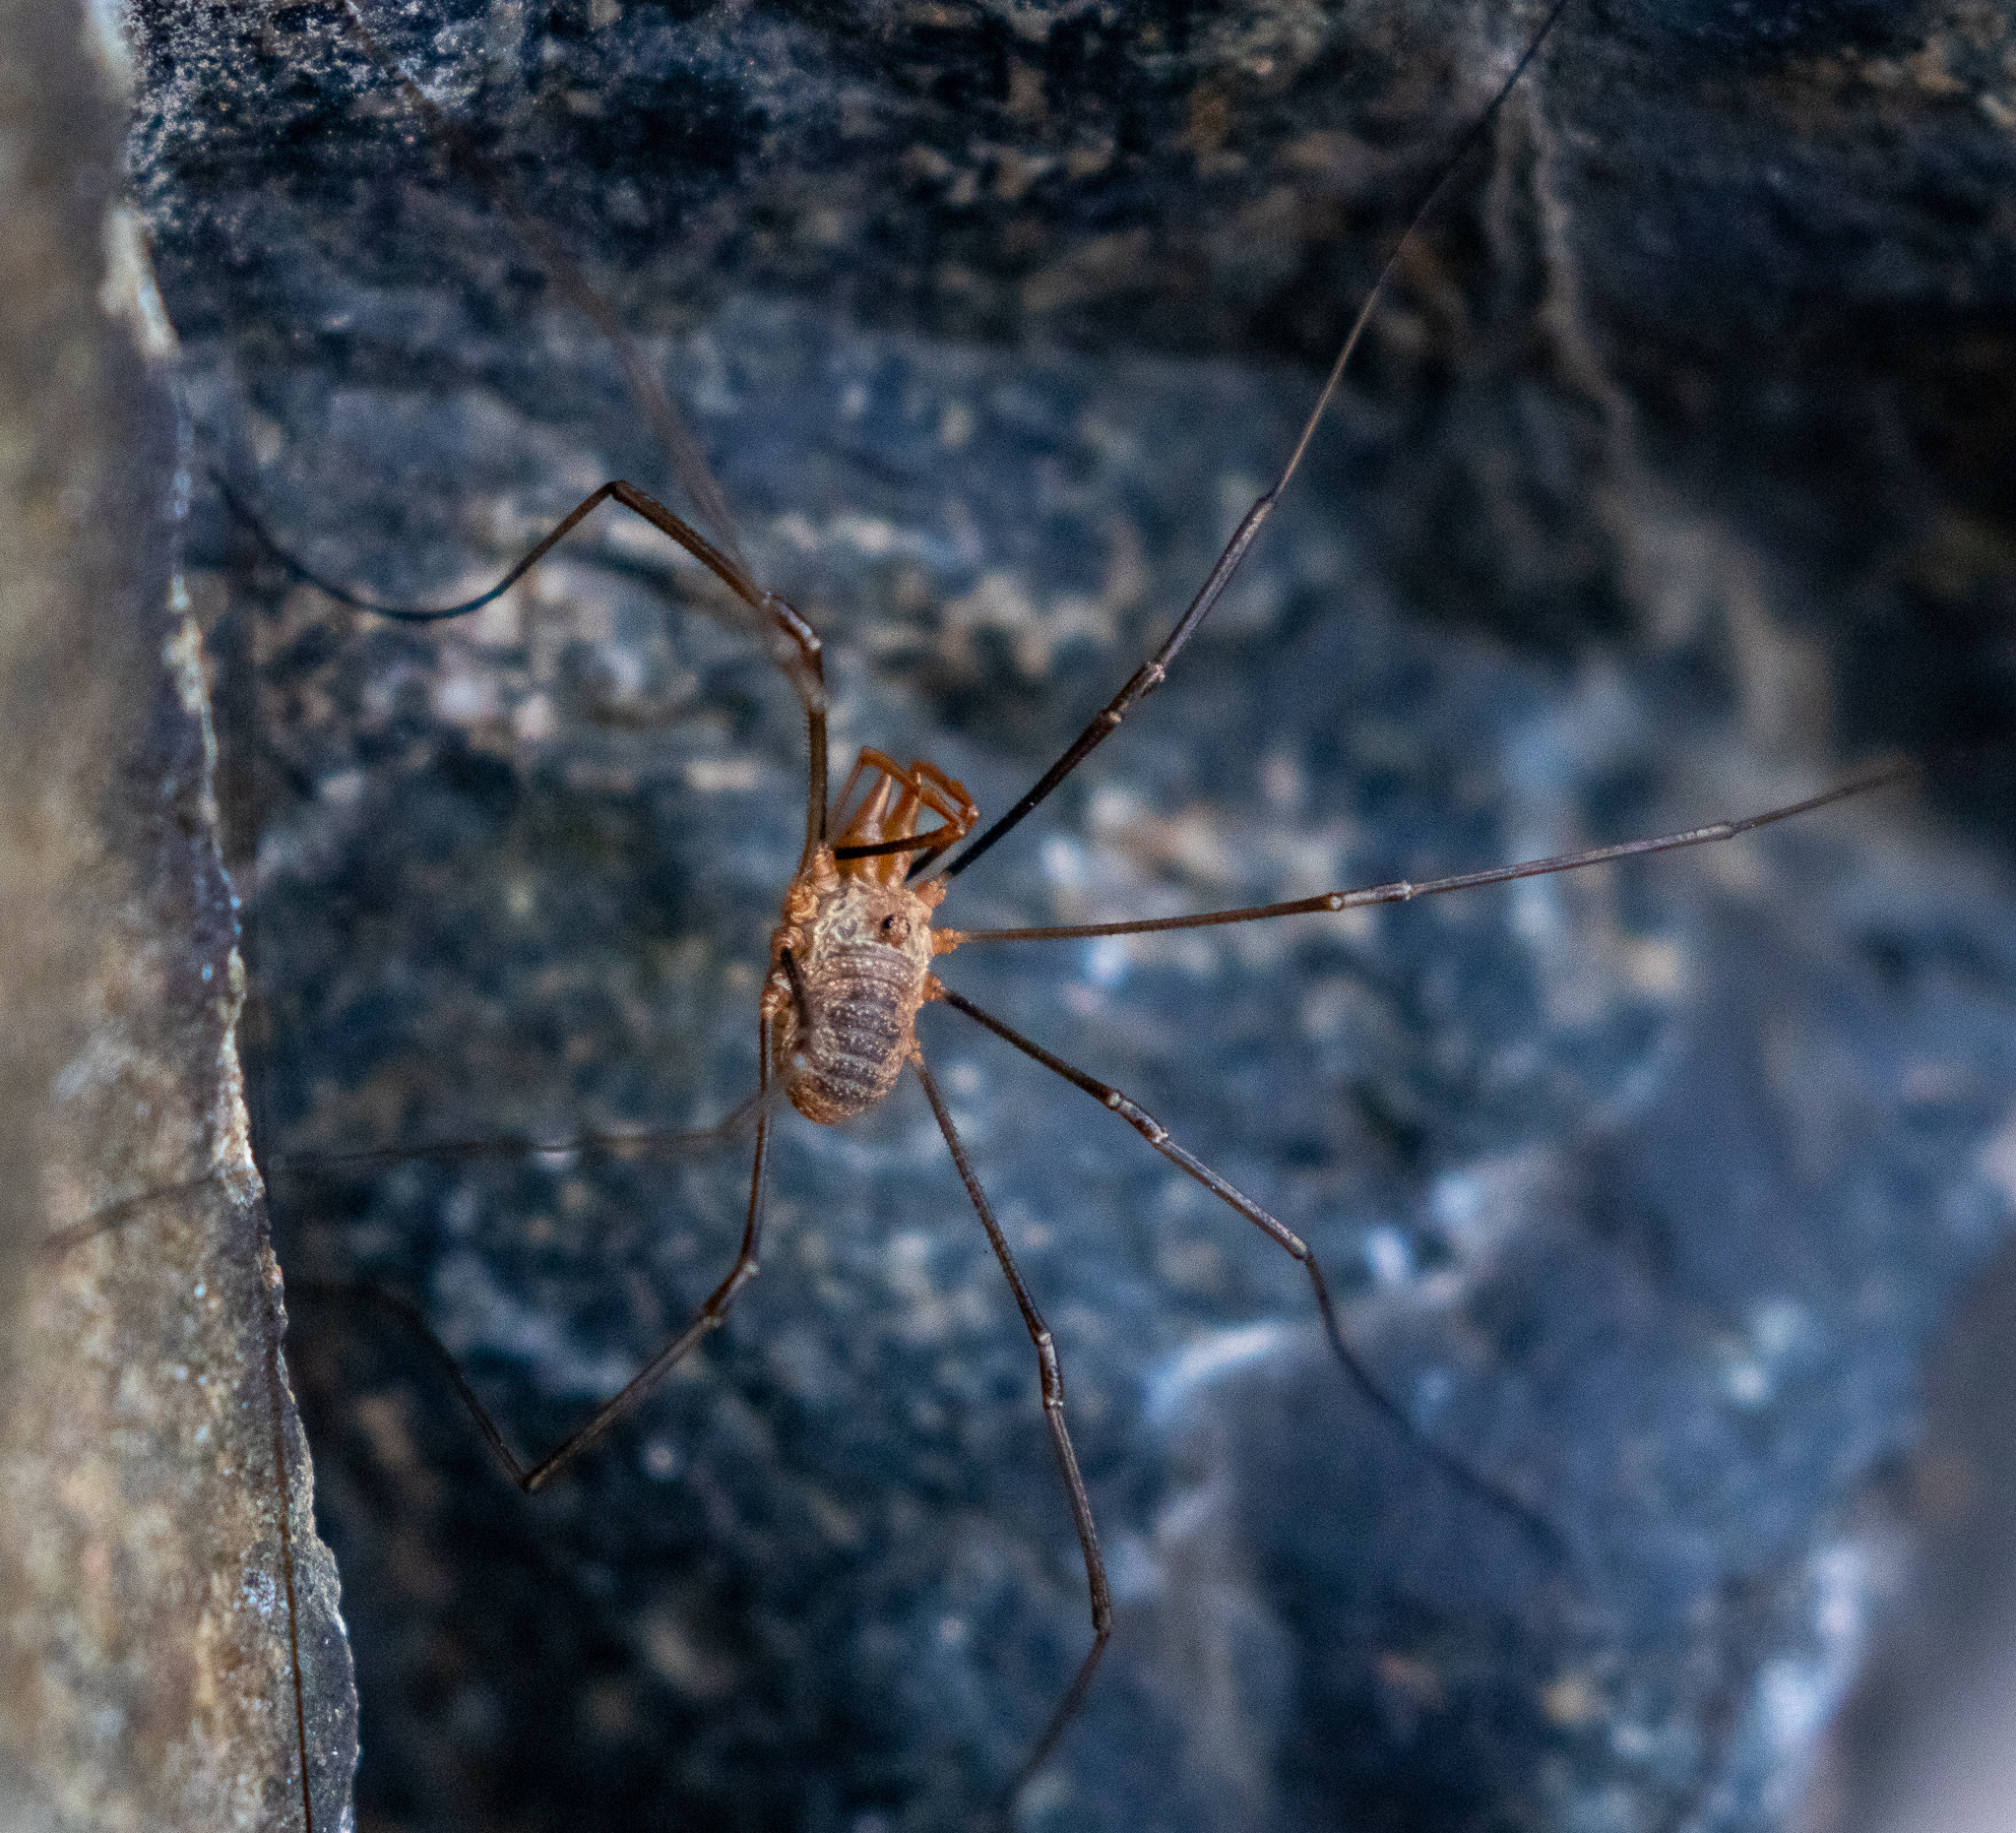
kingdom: Animalia
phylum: Arthropoda
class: Arachnida
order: Opiliones
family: Phalangiidae
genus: Phalangium
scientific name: Phalangium opilio
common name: Daddy longleg
